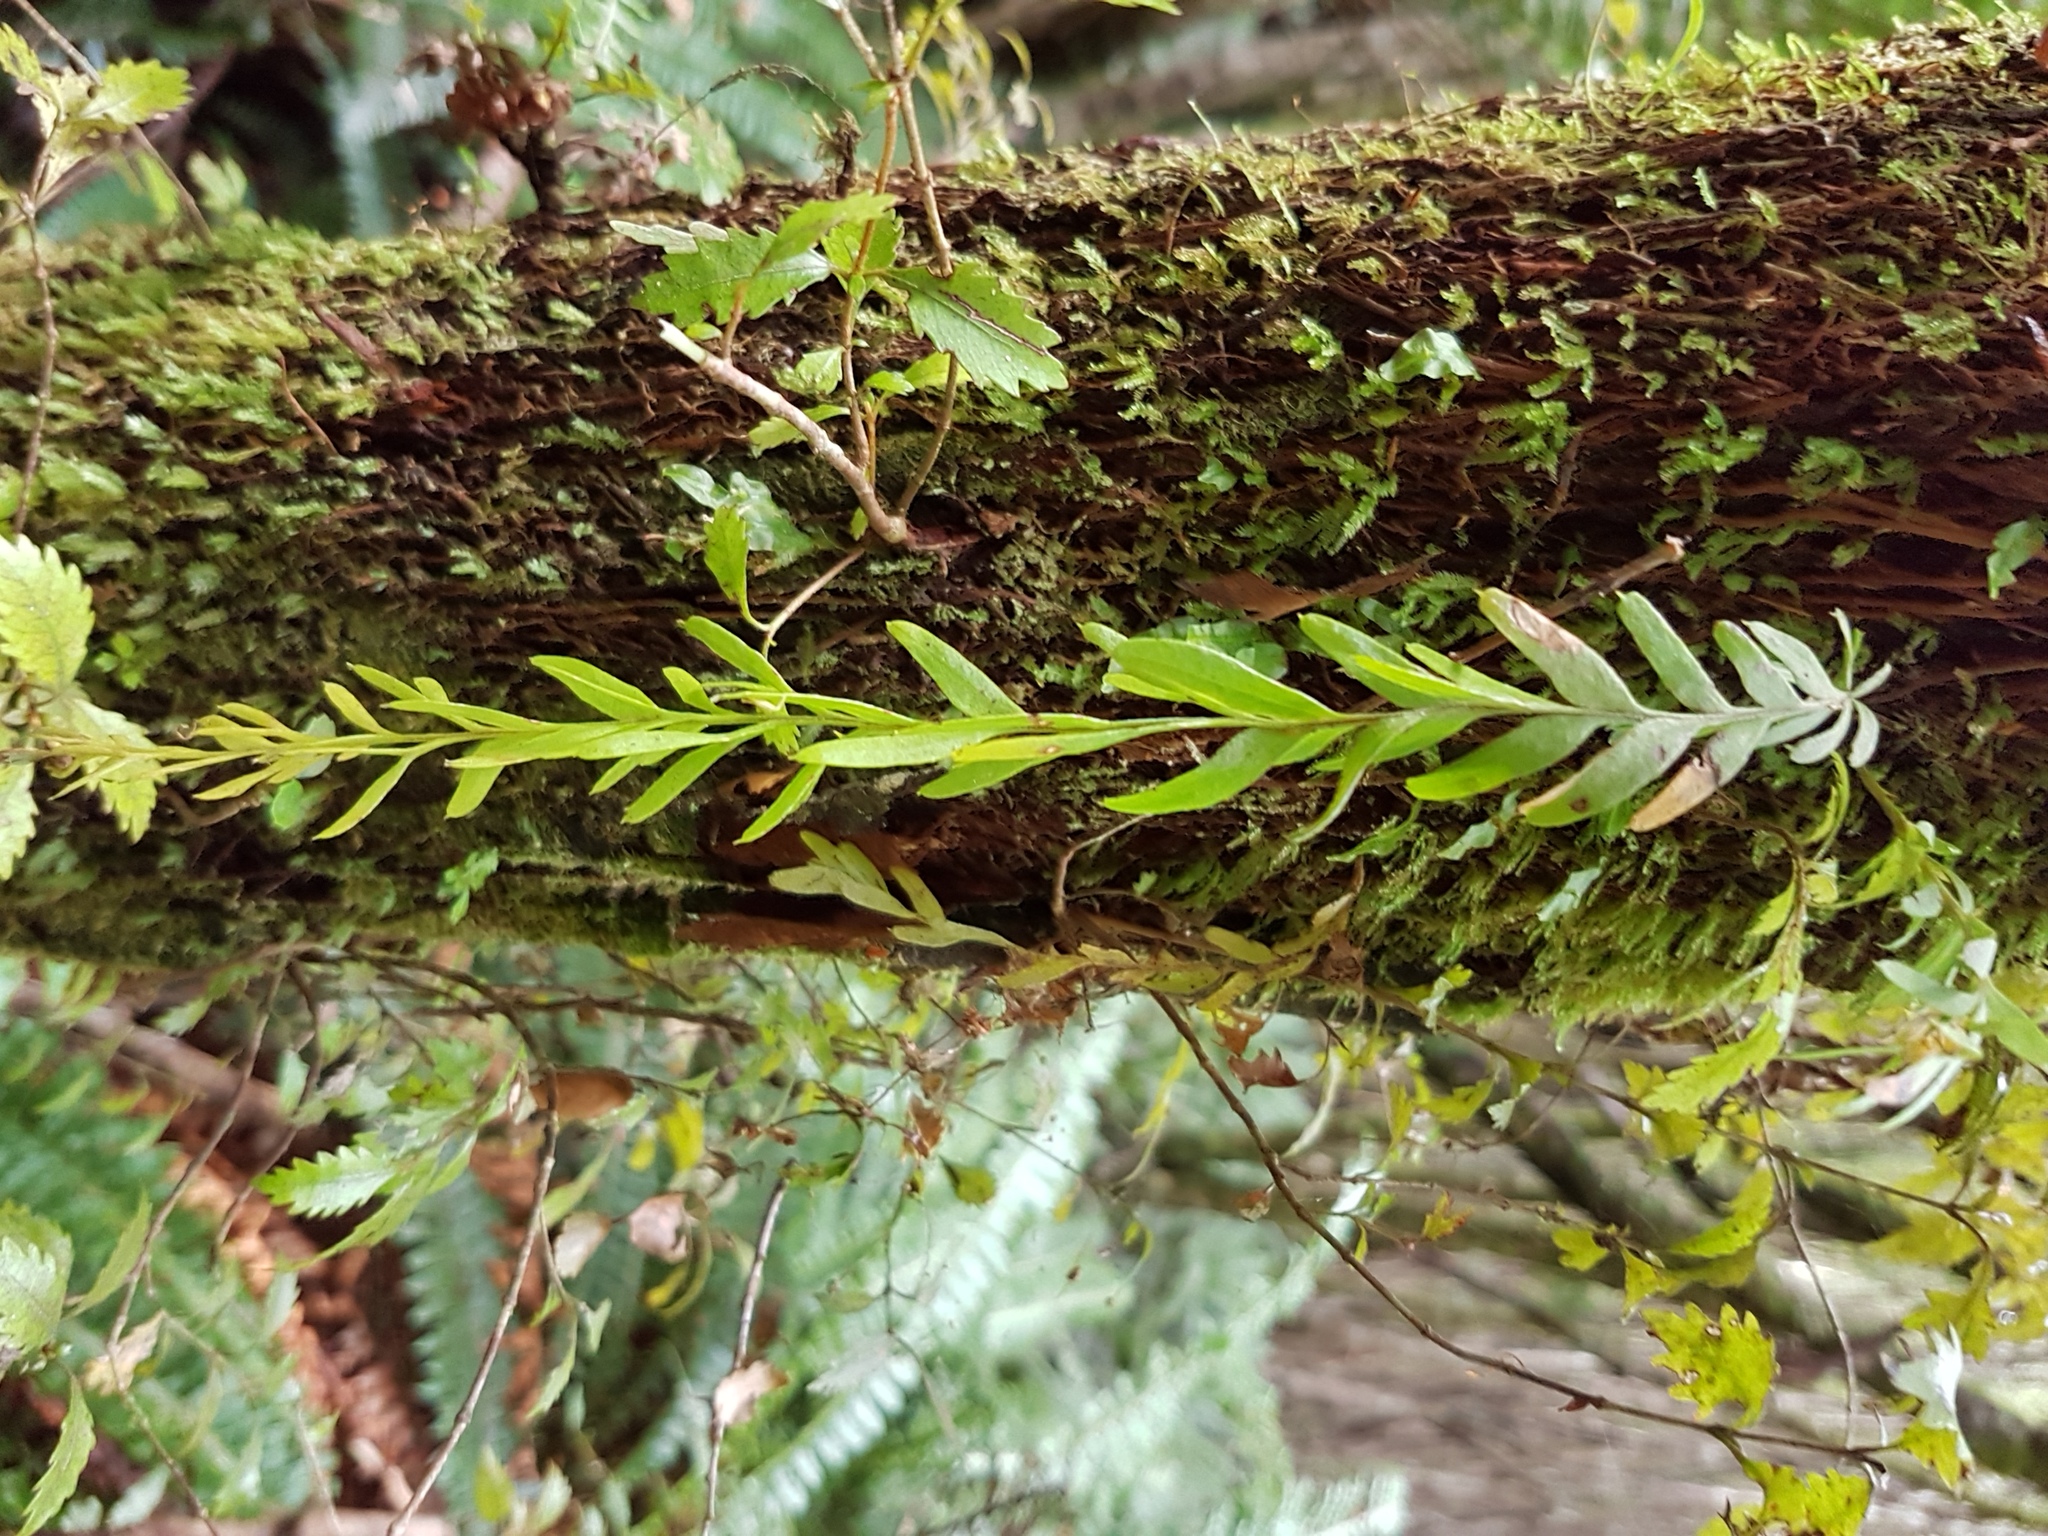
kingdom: Plantae
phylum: Tracheophyta
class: Polypodiopsida
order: Psilotales
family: Psilotaceae
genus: Tmesipteris
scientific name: Tmesipteris tannensis
